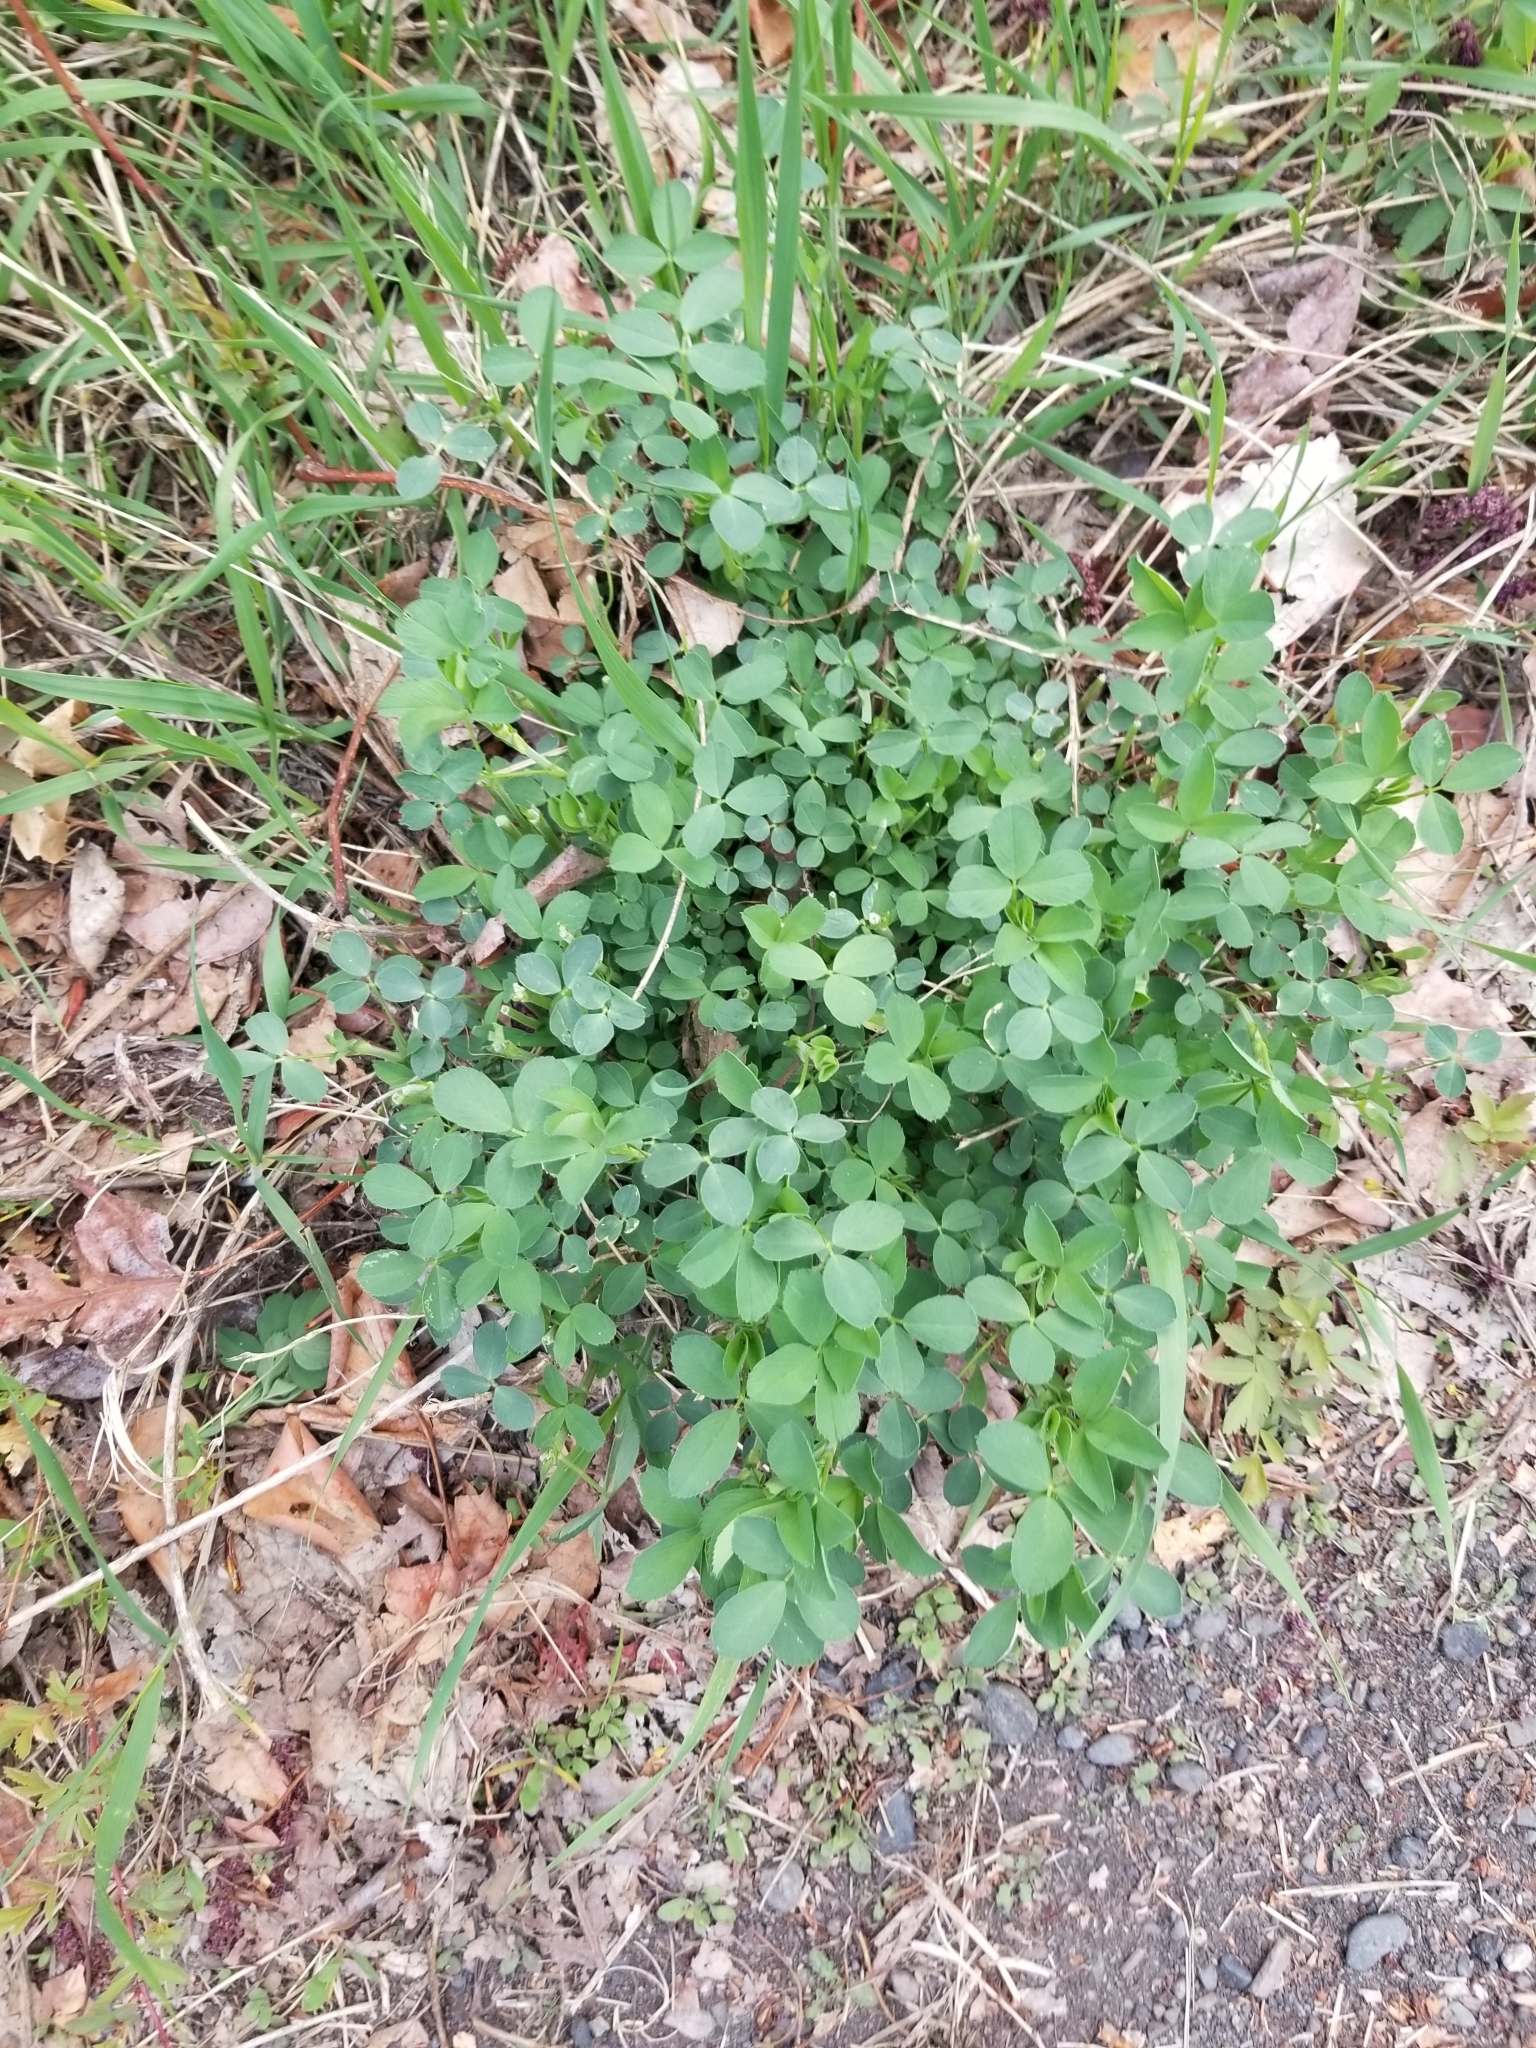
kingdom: Plantae
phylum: Tracheophyta
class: Magnoliopsida
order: Fabales
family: Fabaceae
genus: Medicago
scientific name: Medicago sativa
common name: Alfalfa
